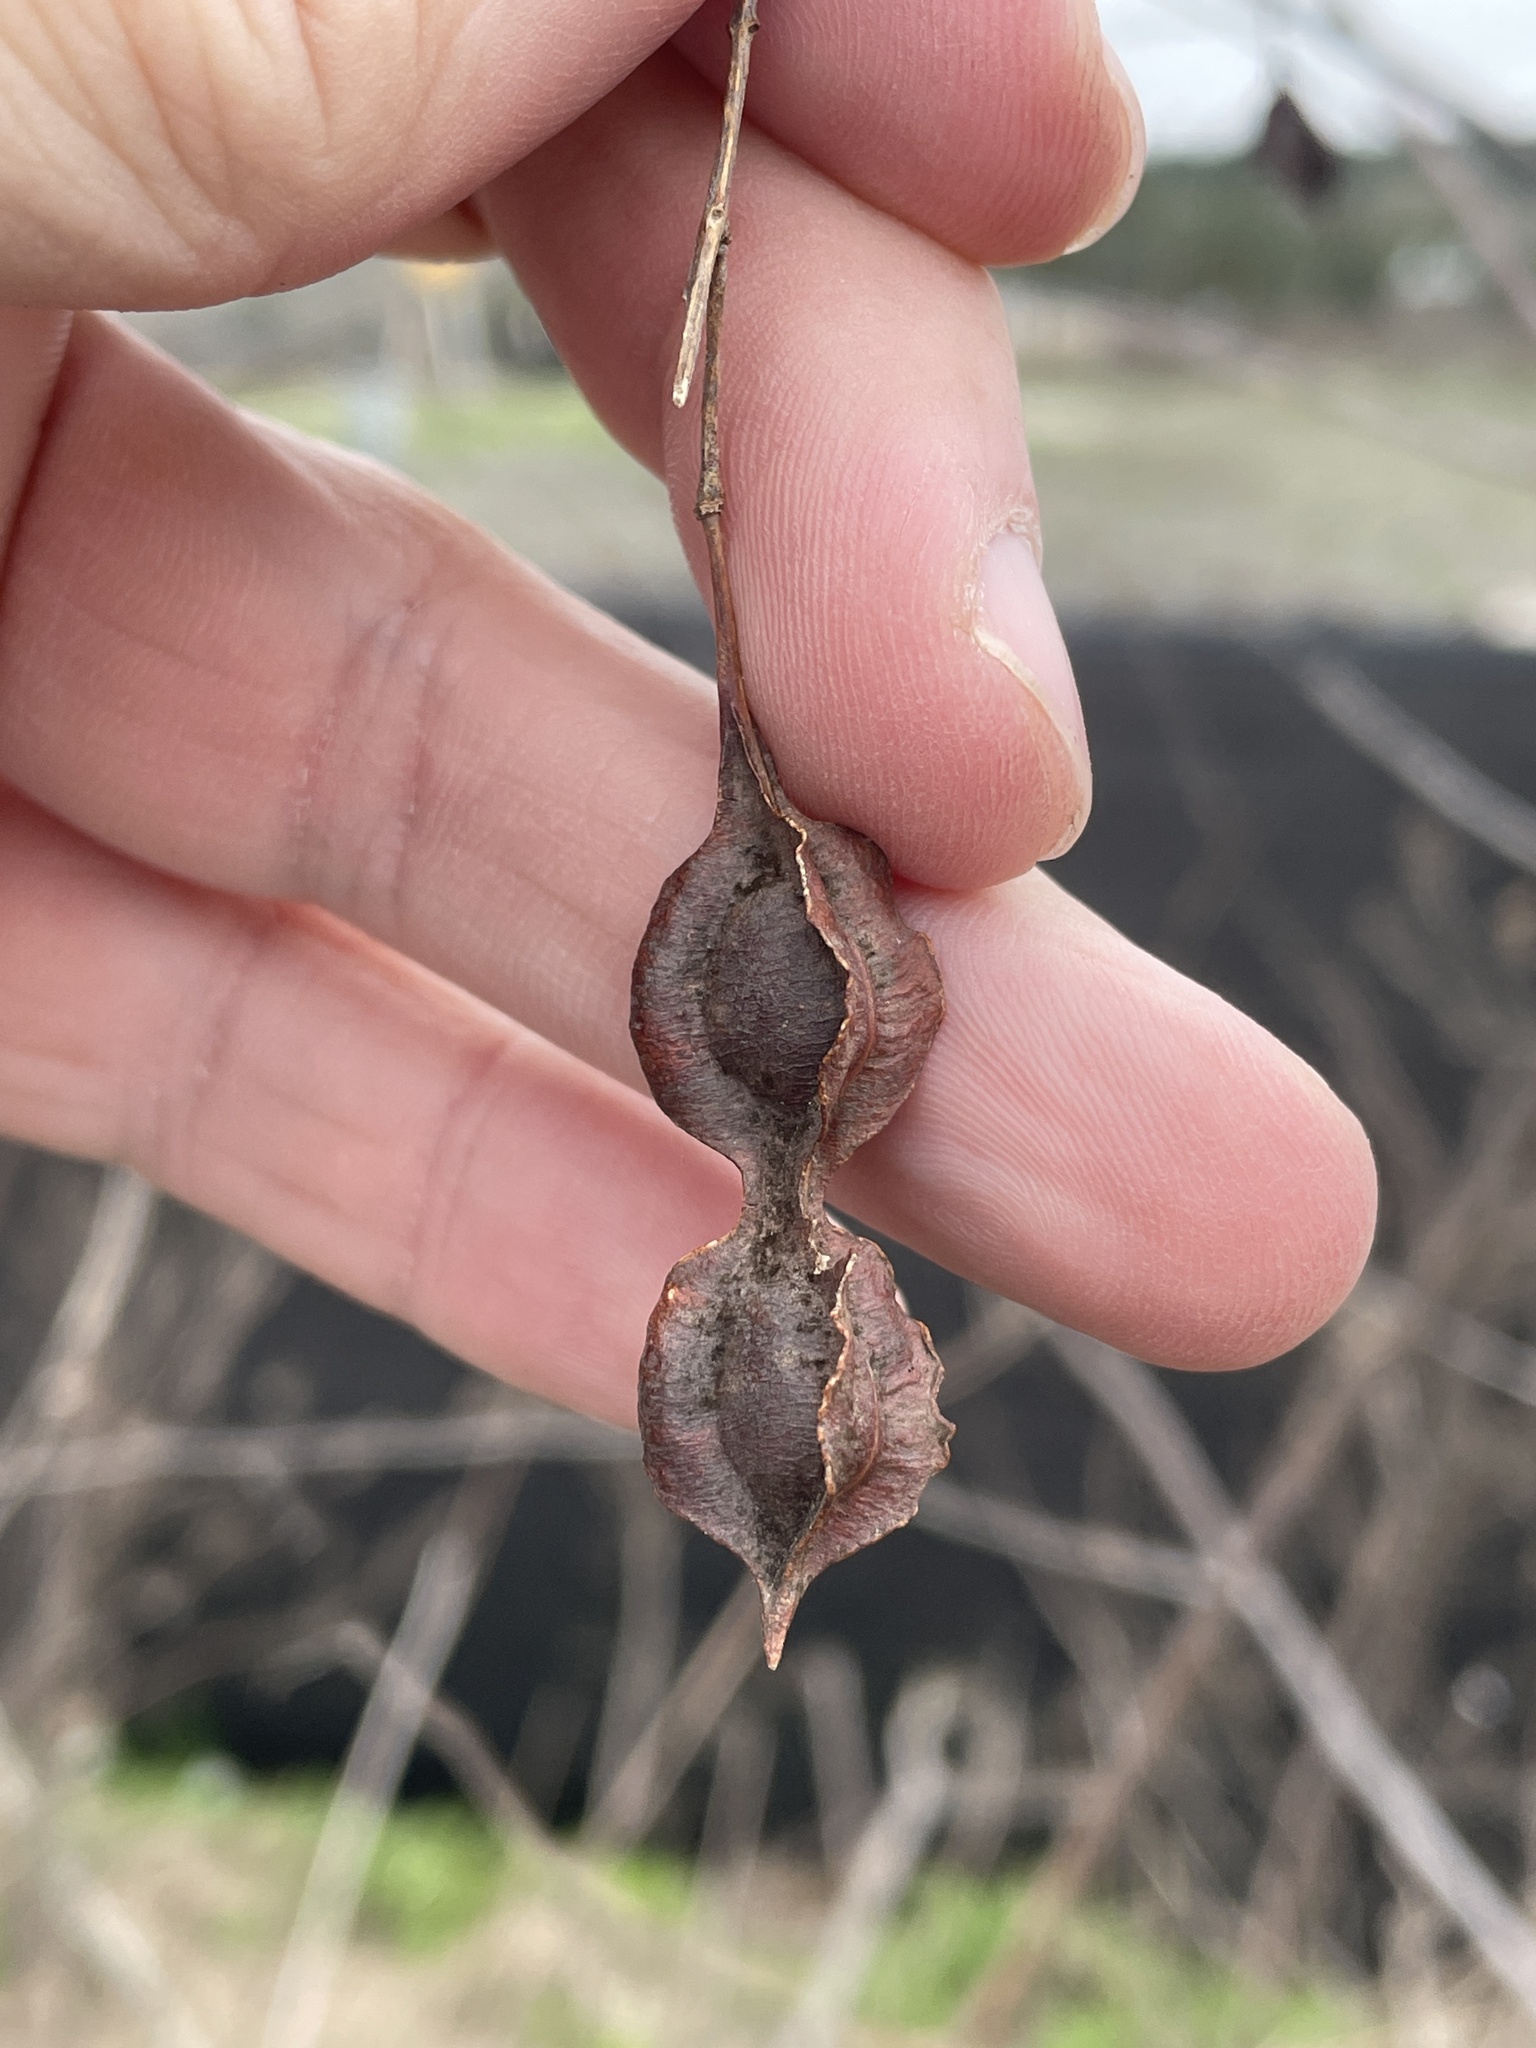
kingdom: Plantae
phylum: Tracheophyta
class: Magnoliopsida
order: Fabales
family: Fabaceae
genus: Sesbania
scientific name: Sesbania drummondii
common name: Poison-bean
